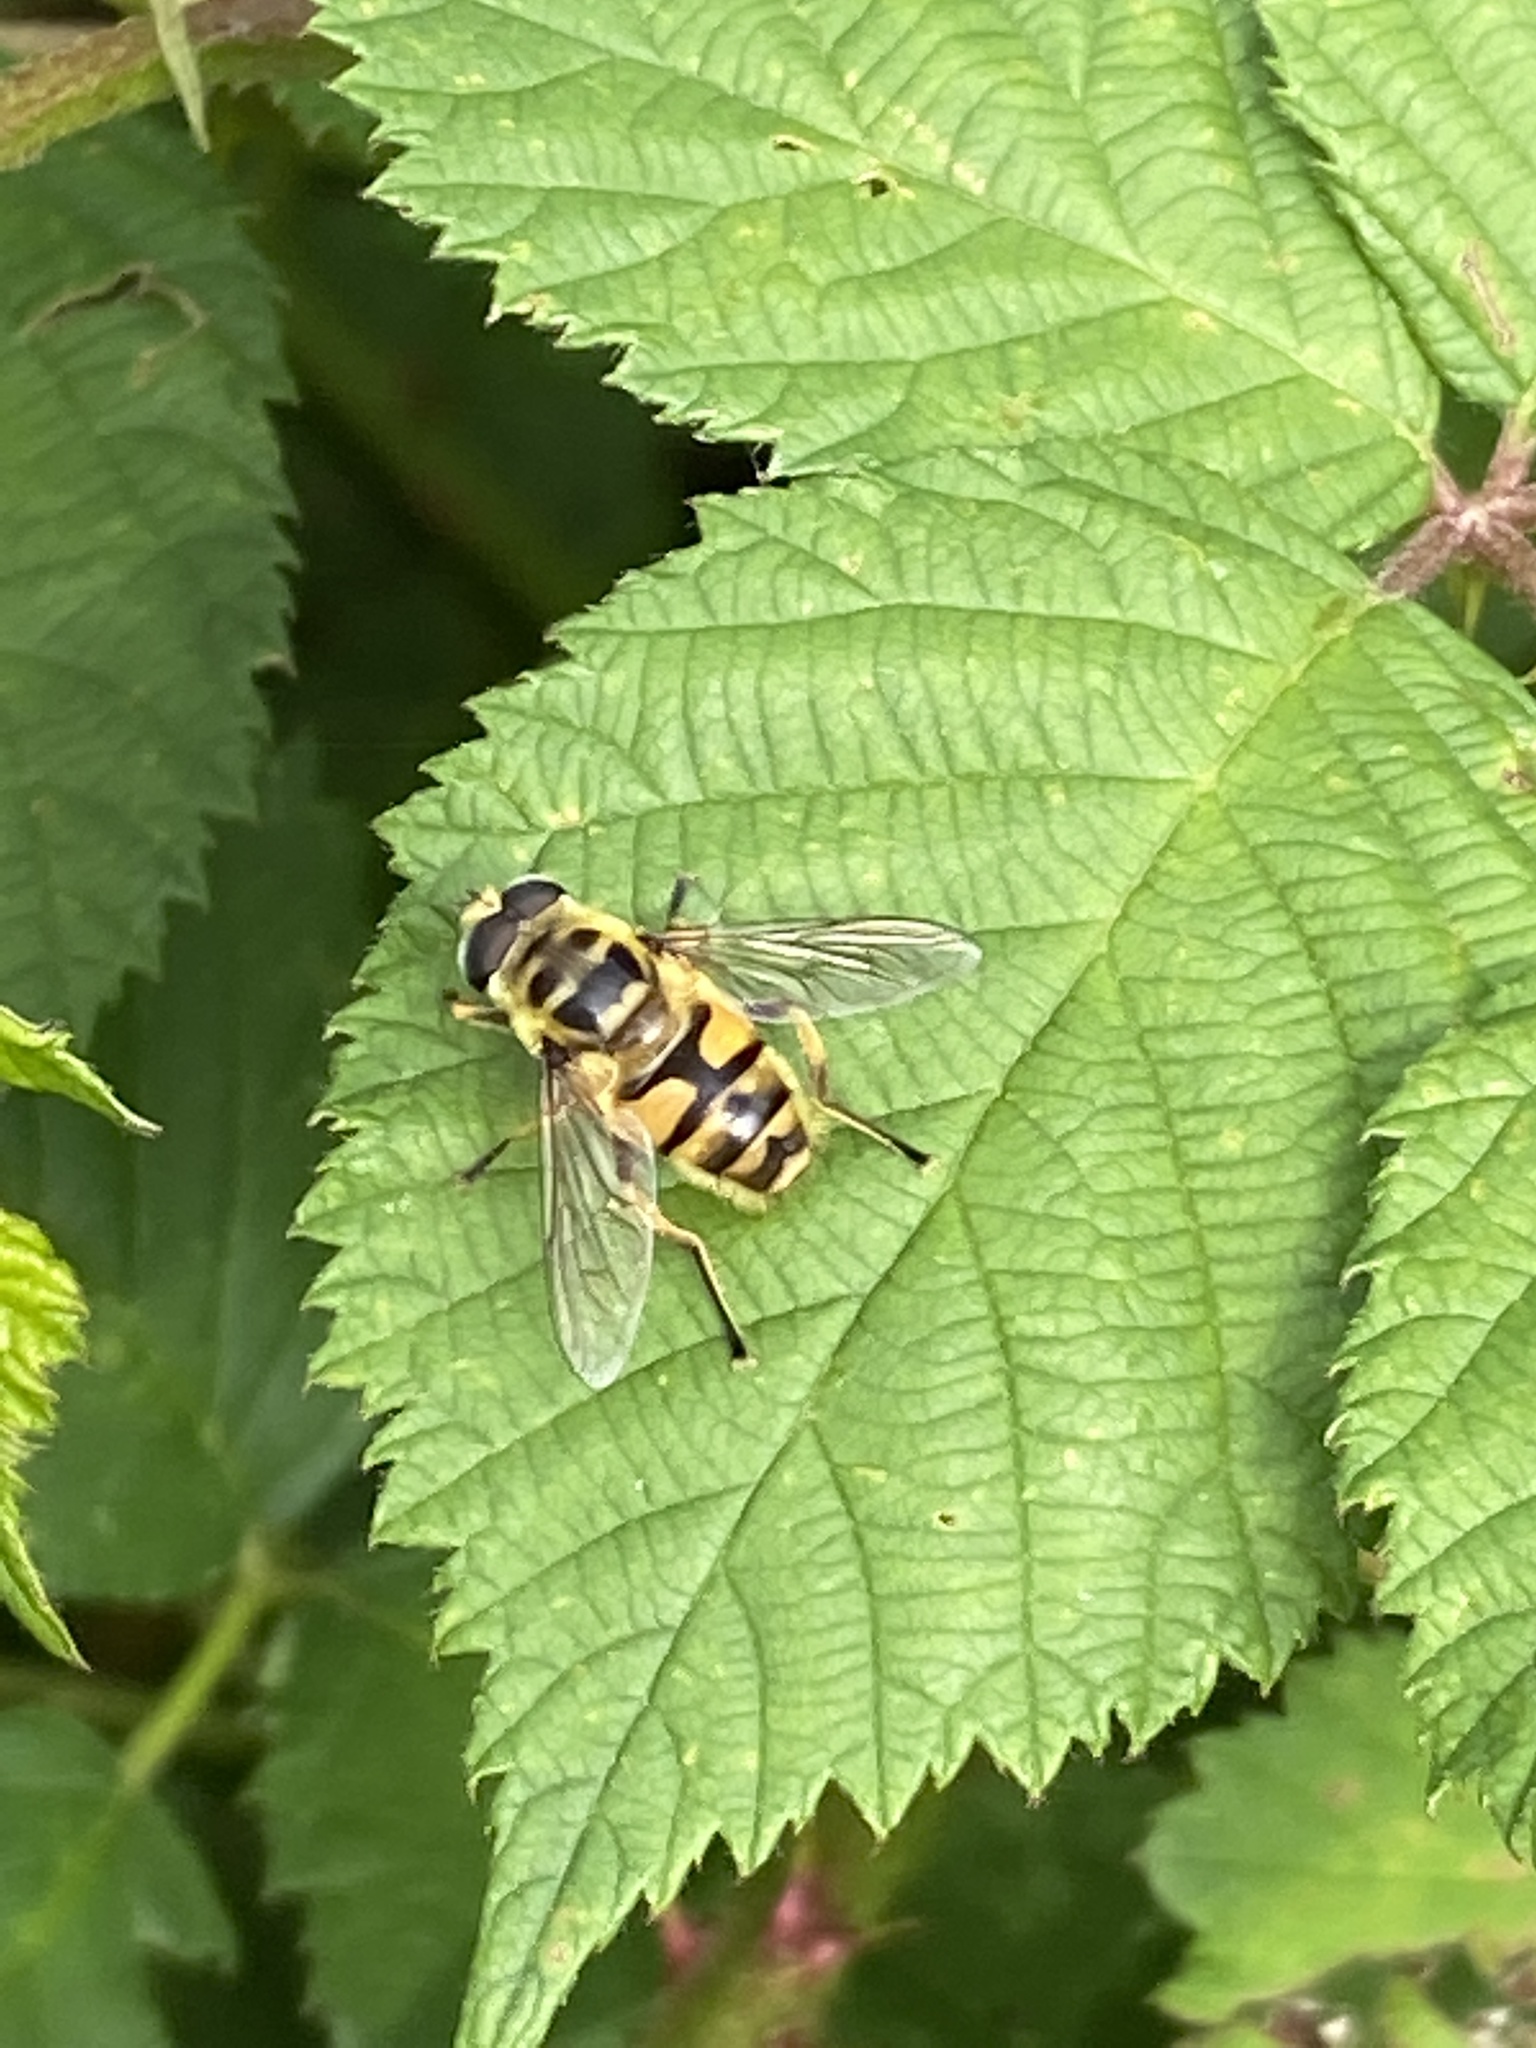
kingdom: Animalia
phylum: Arthropoda
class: Insecta
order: Diptera
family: Syrphidae
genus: Myathropa
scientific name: Myathropa florea
